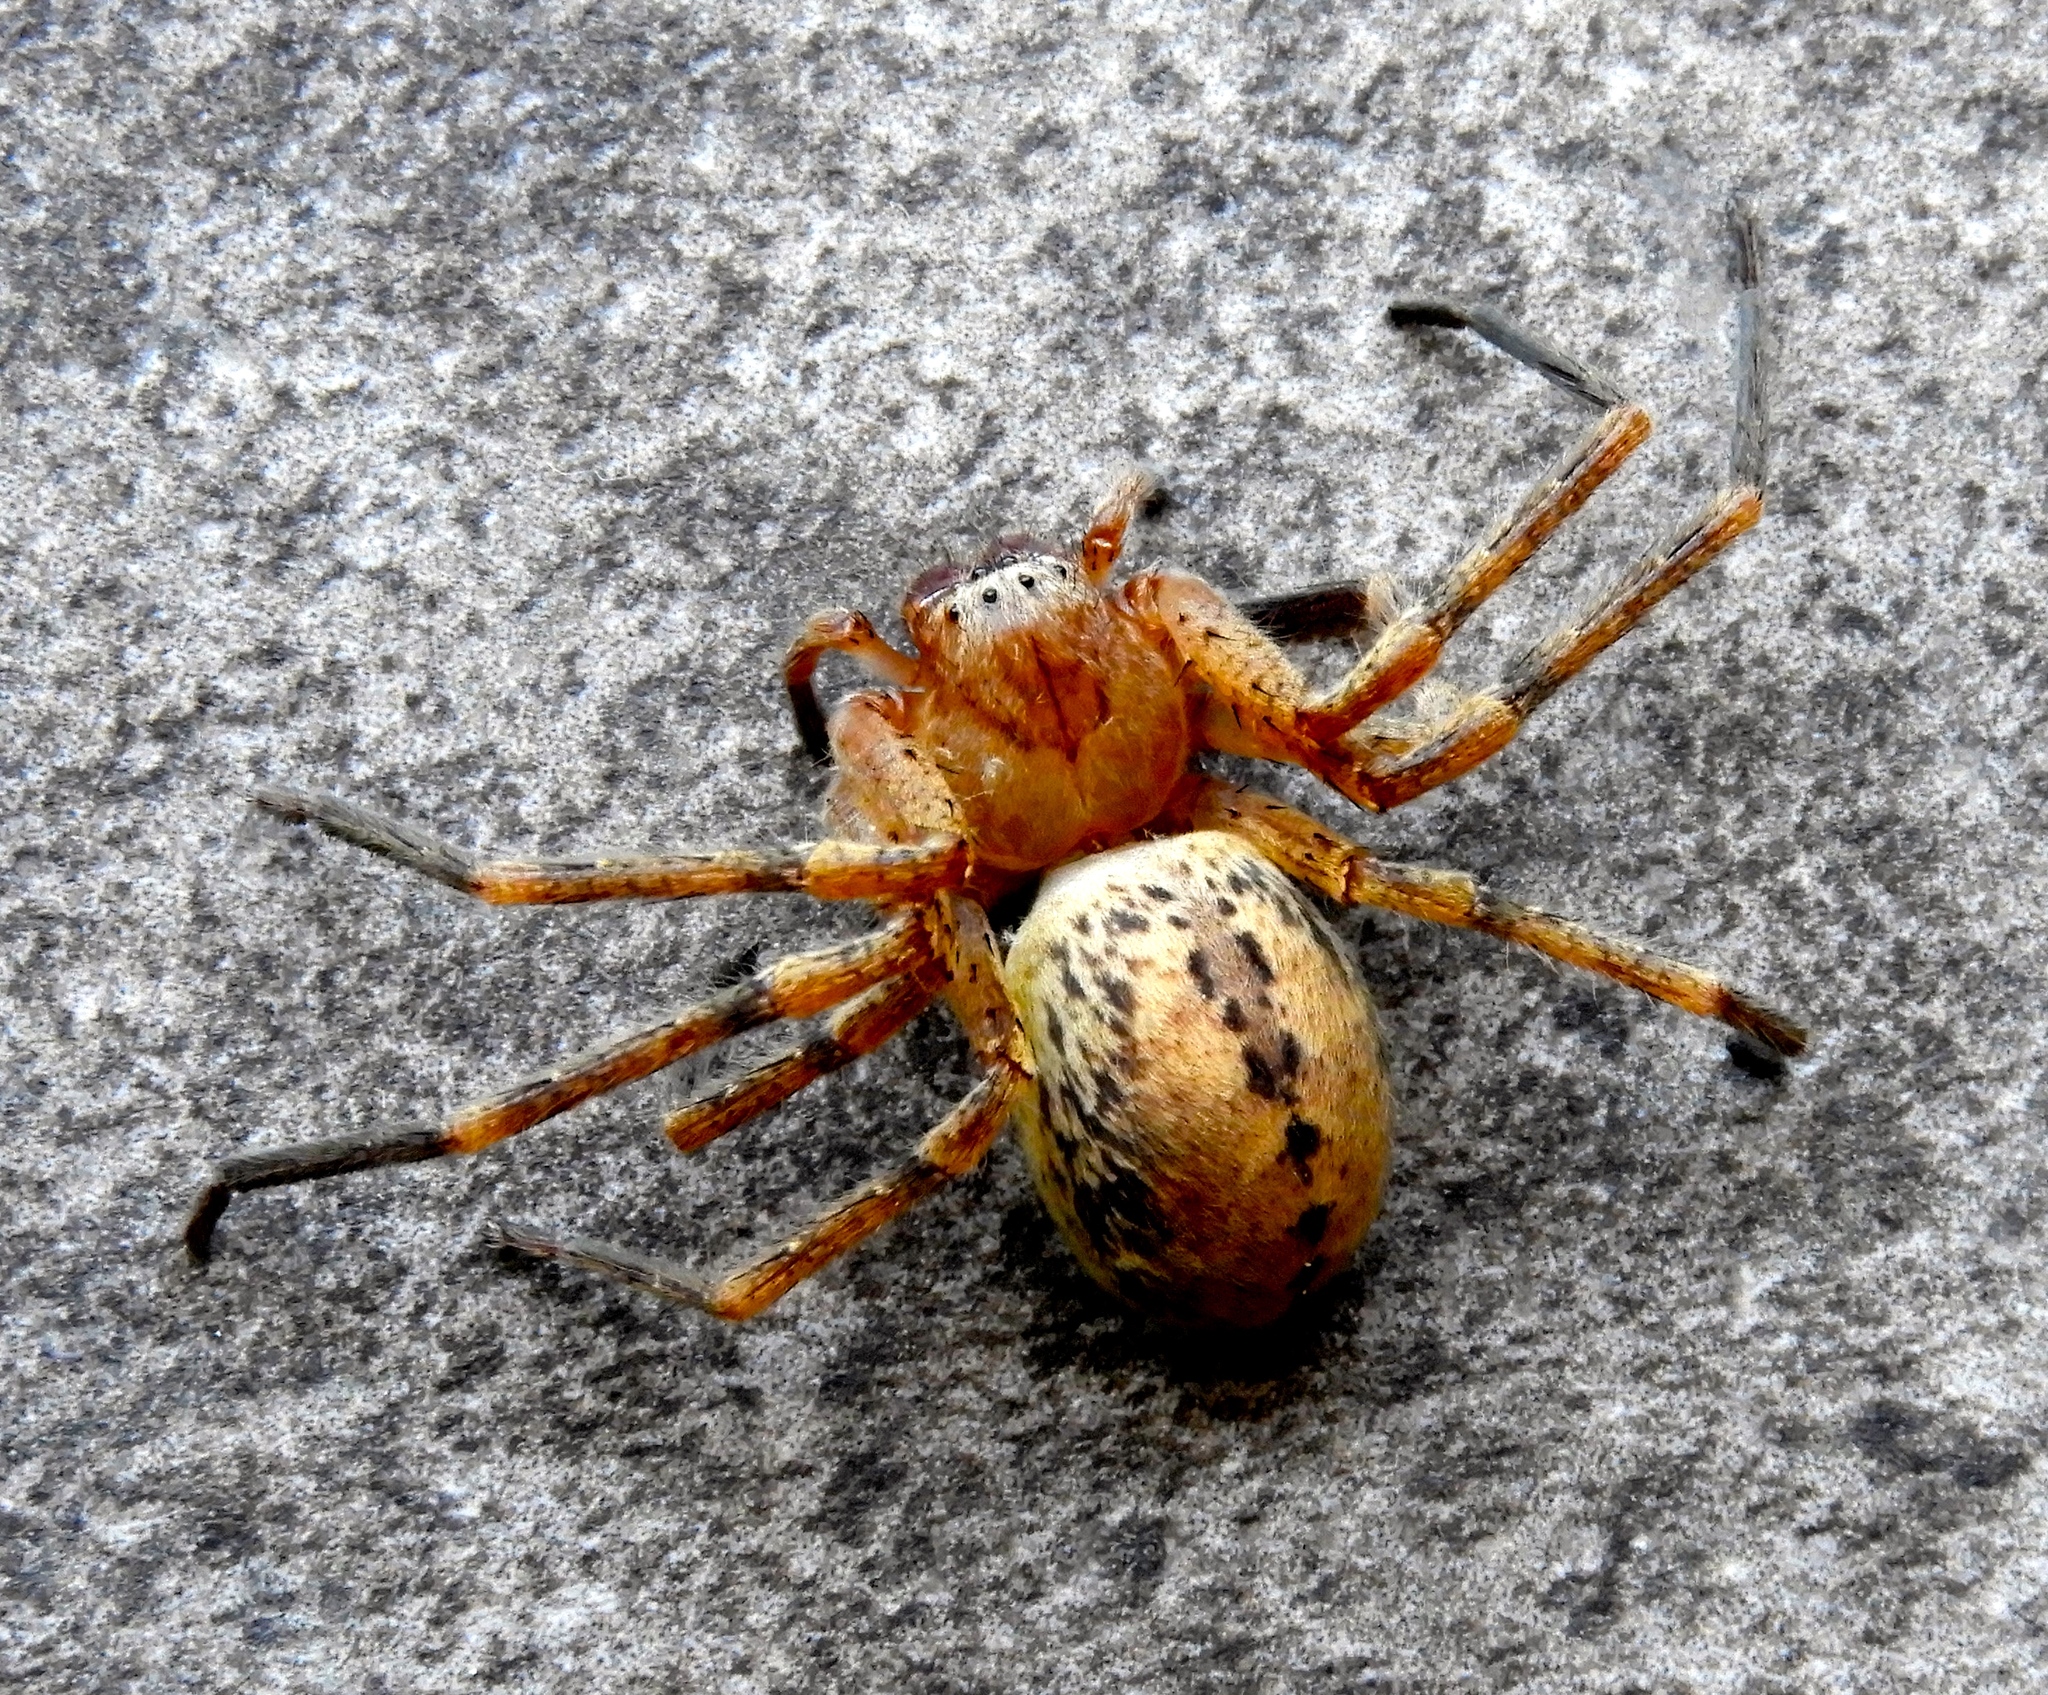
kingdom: Animalia
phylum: Arthropoda
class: Arachnida
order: Araneae
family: Sparassidae
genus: Curicaberis
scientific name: Curicaberis culiacan
